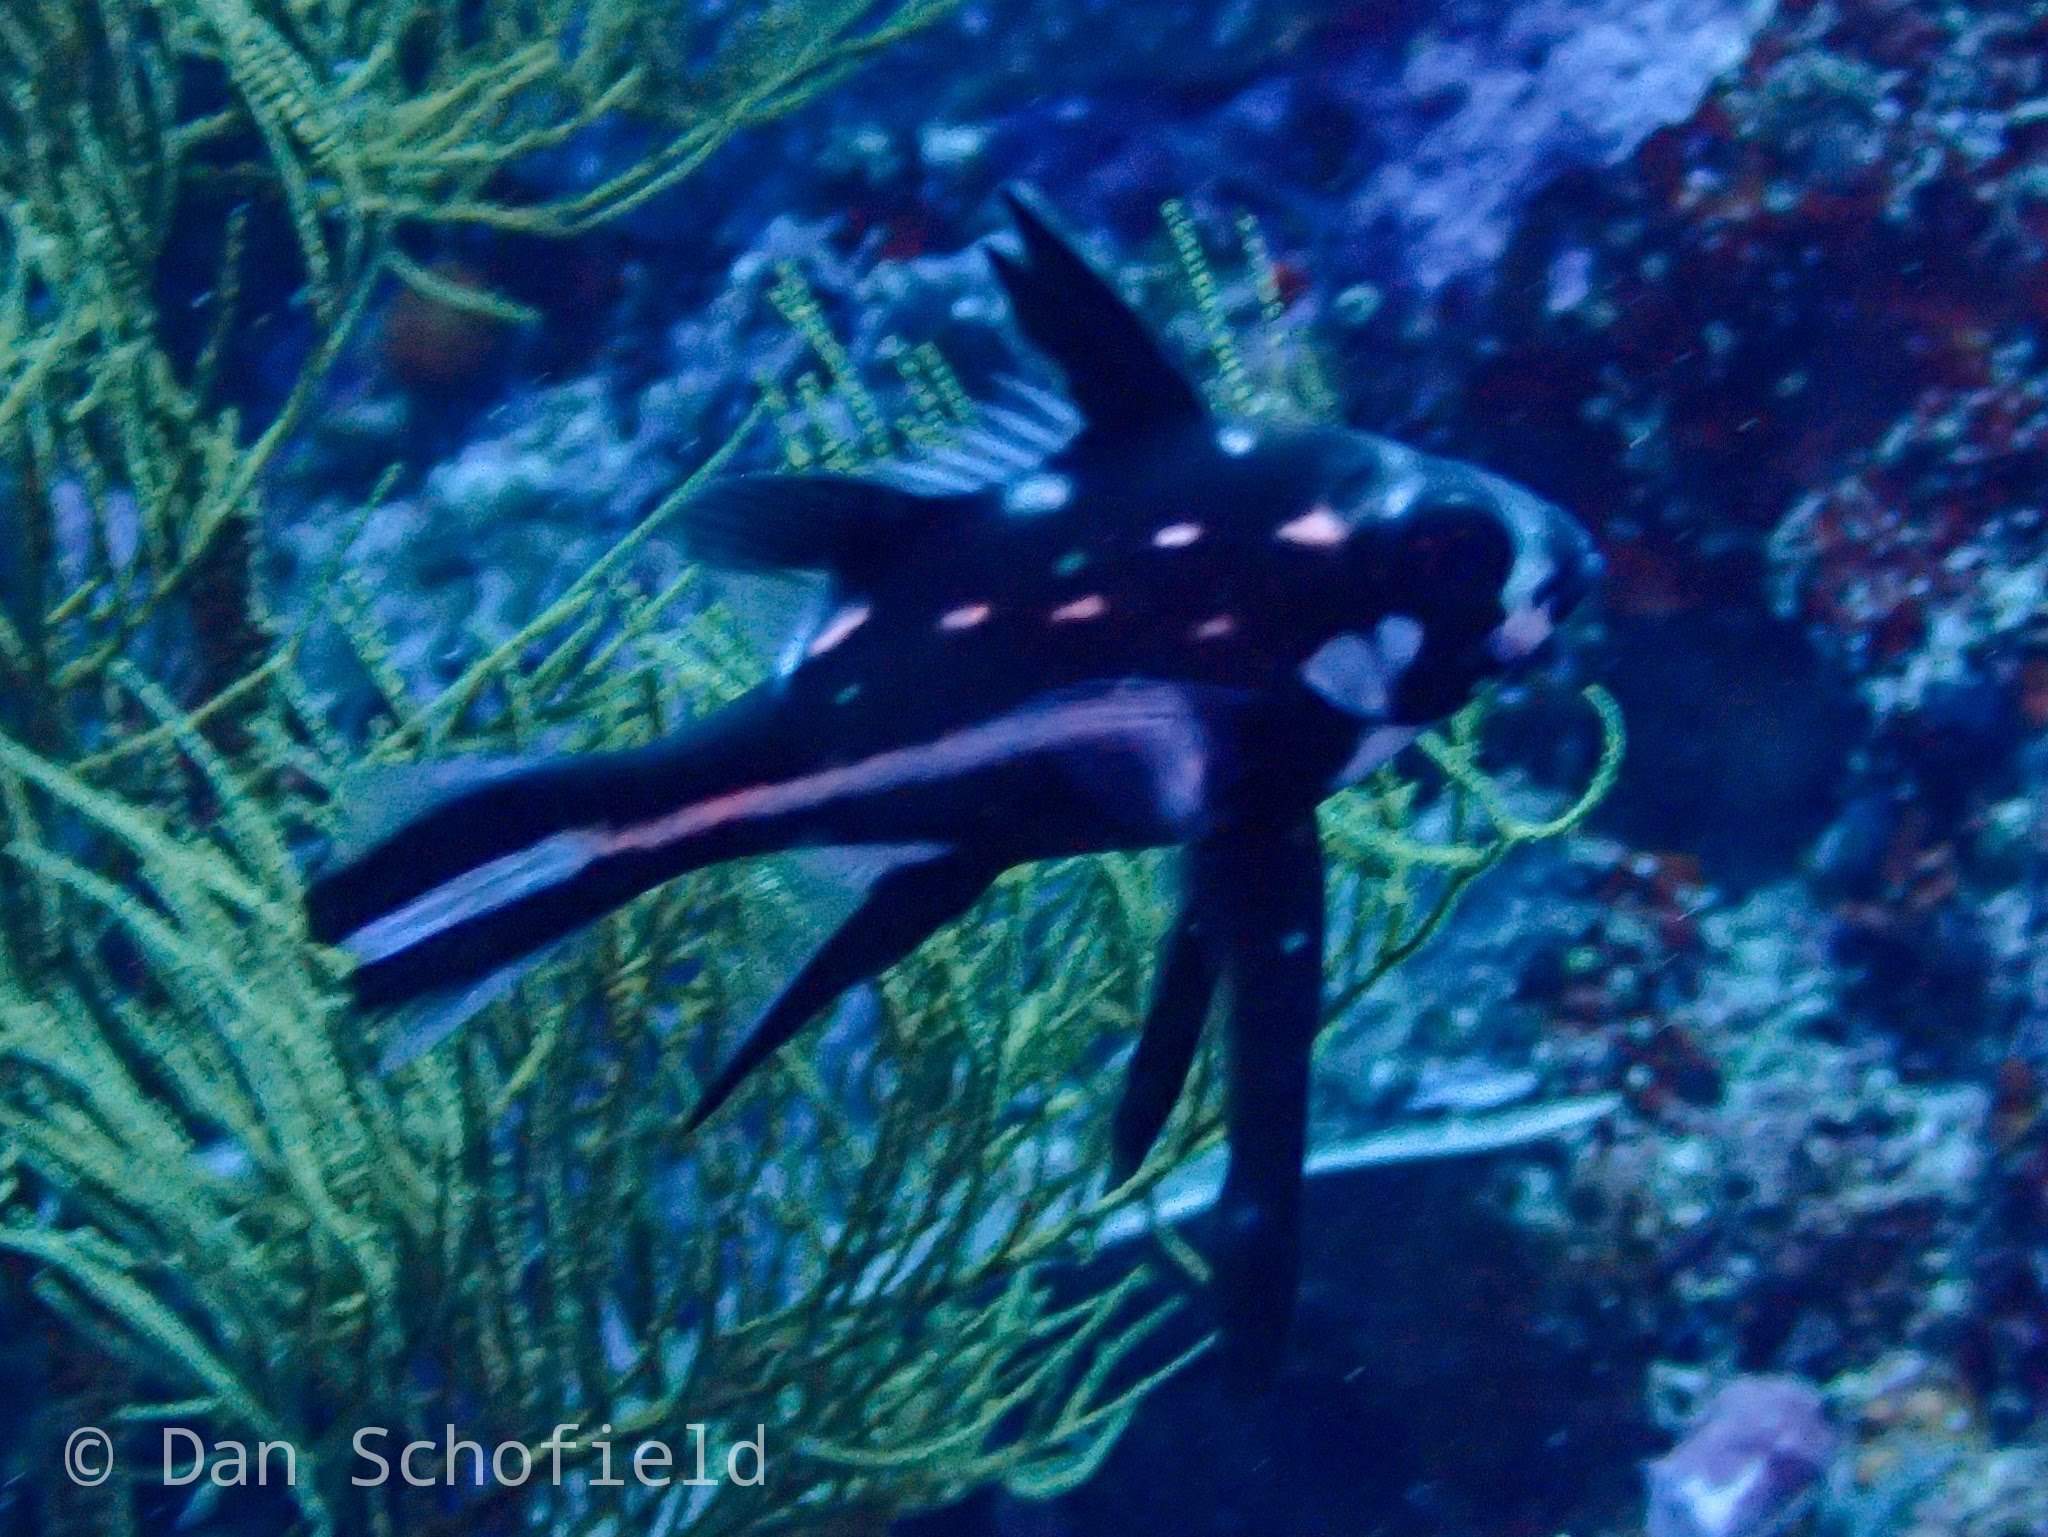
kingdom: Animalia
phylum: Chordata
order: Perciformes
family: Lutjanidae
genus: Macolor
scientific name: Macolor macularis
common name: Midnight snapper
